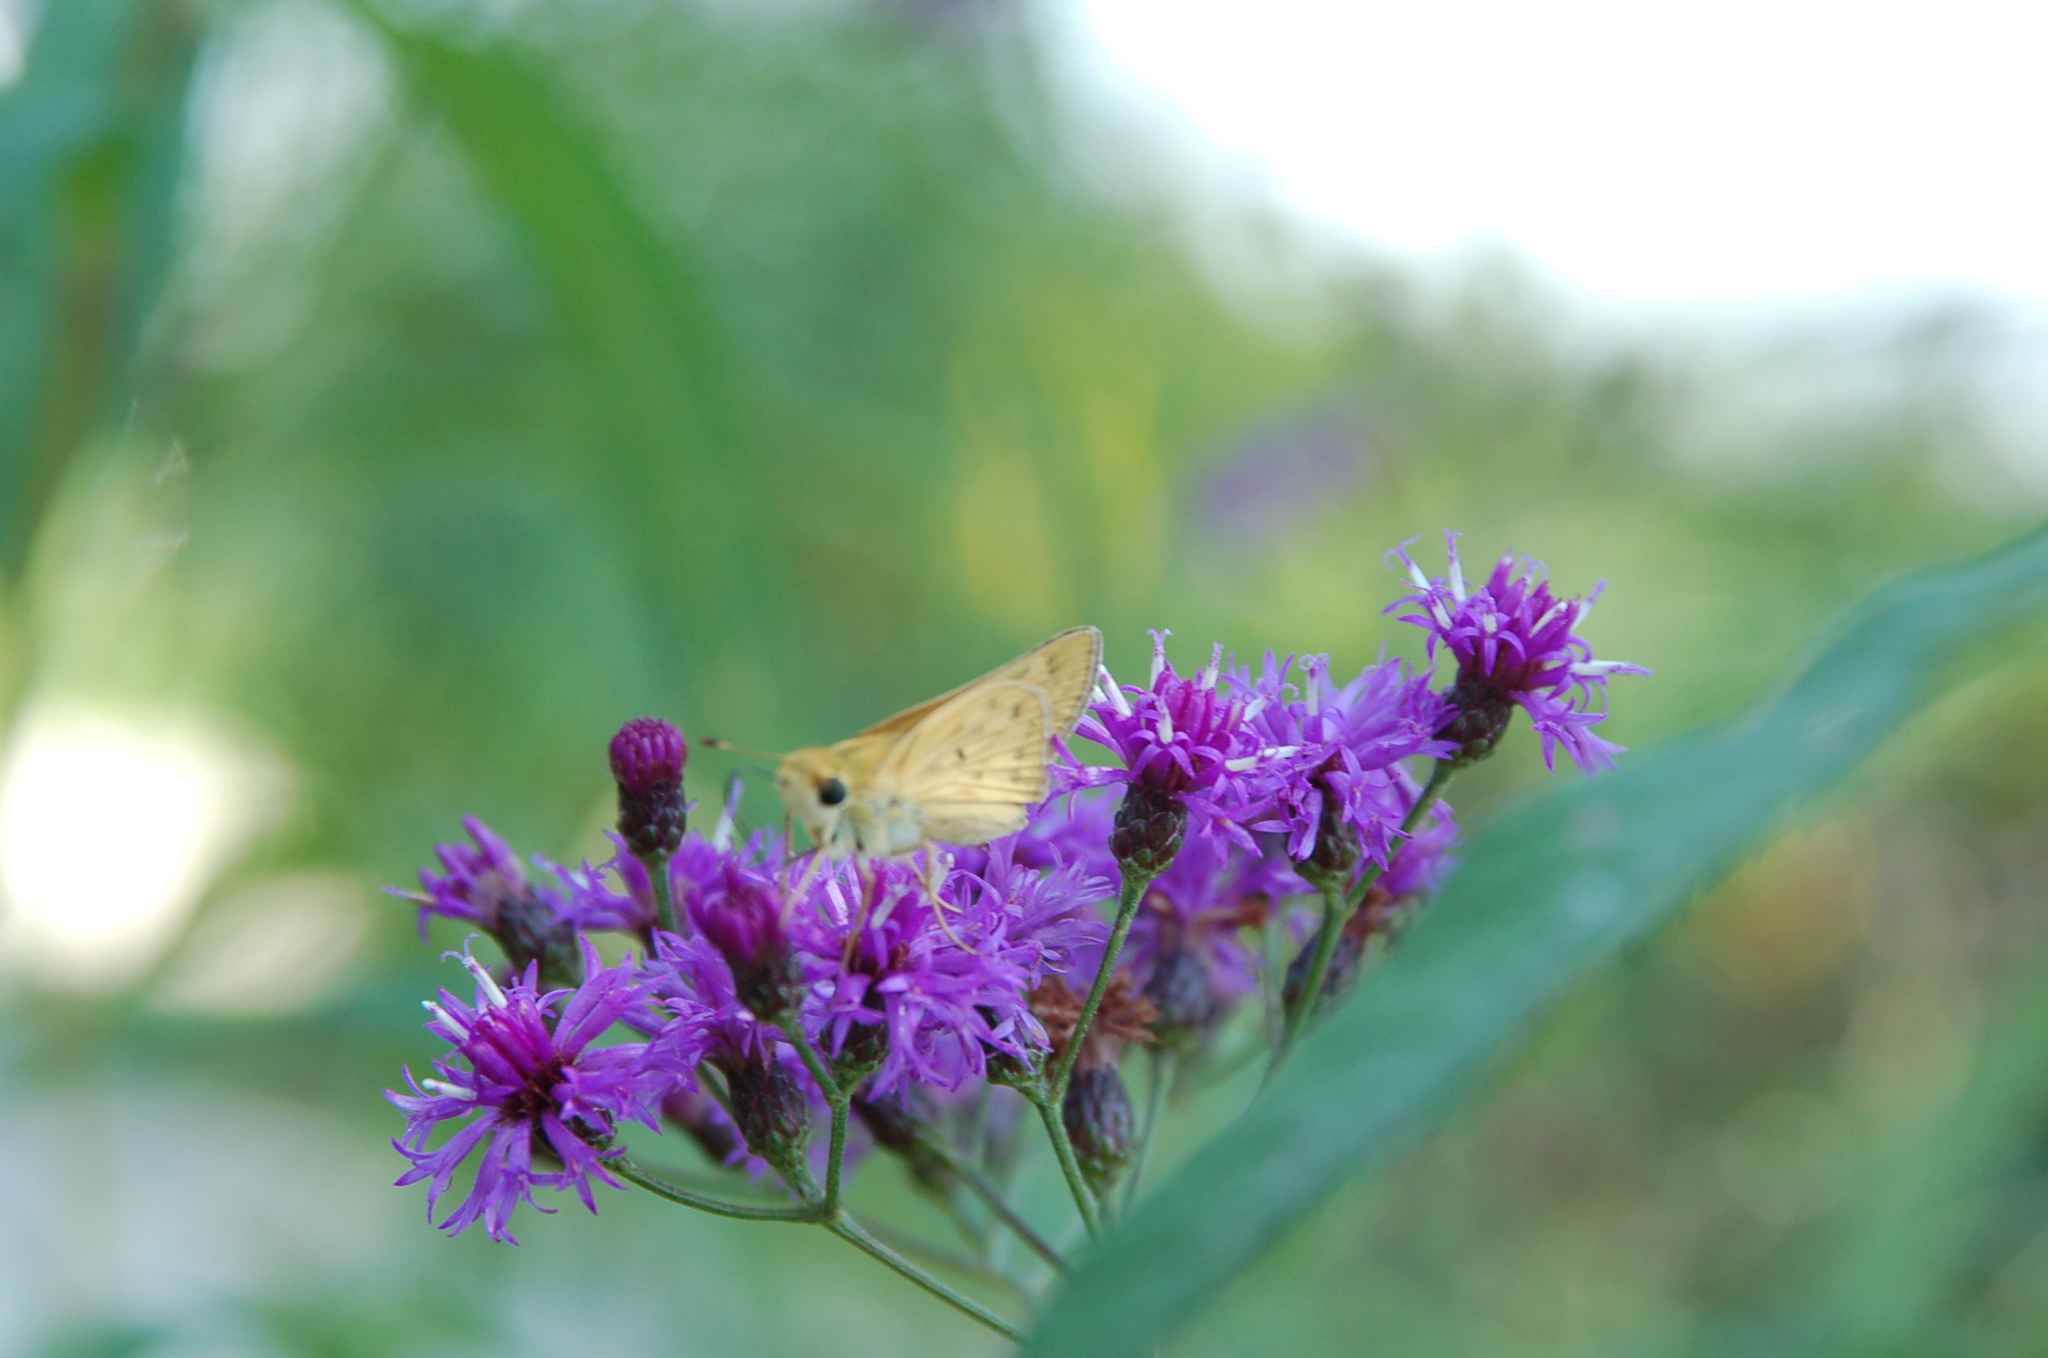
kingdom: Animalia
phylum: Arthropoda
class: Insecta
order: Lepidoptera
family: Hesperiidae
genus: Hylephila
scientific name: Hylephila phyleus
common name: Fiery skipper
